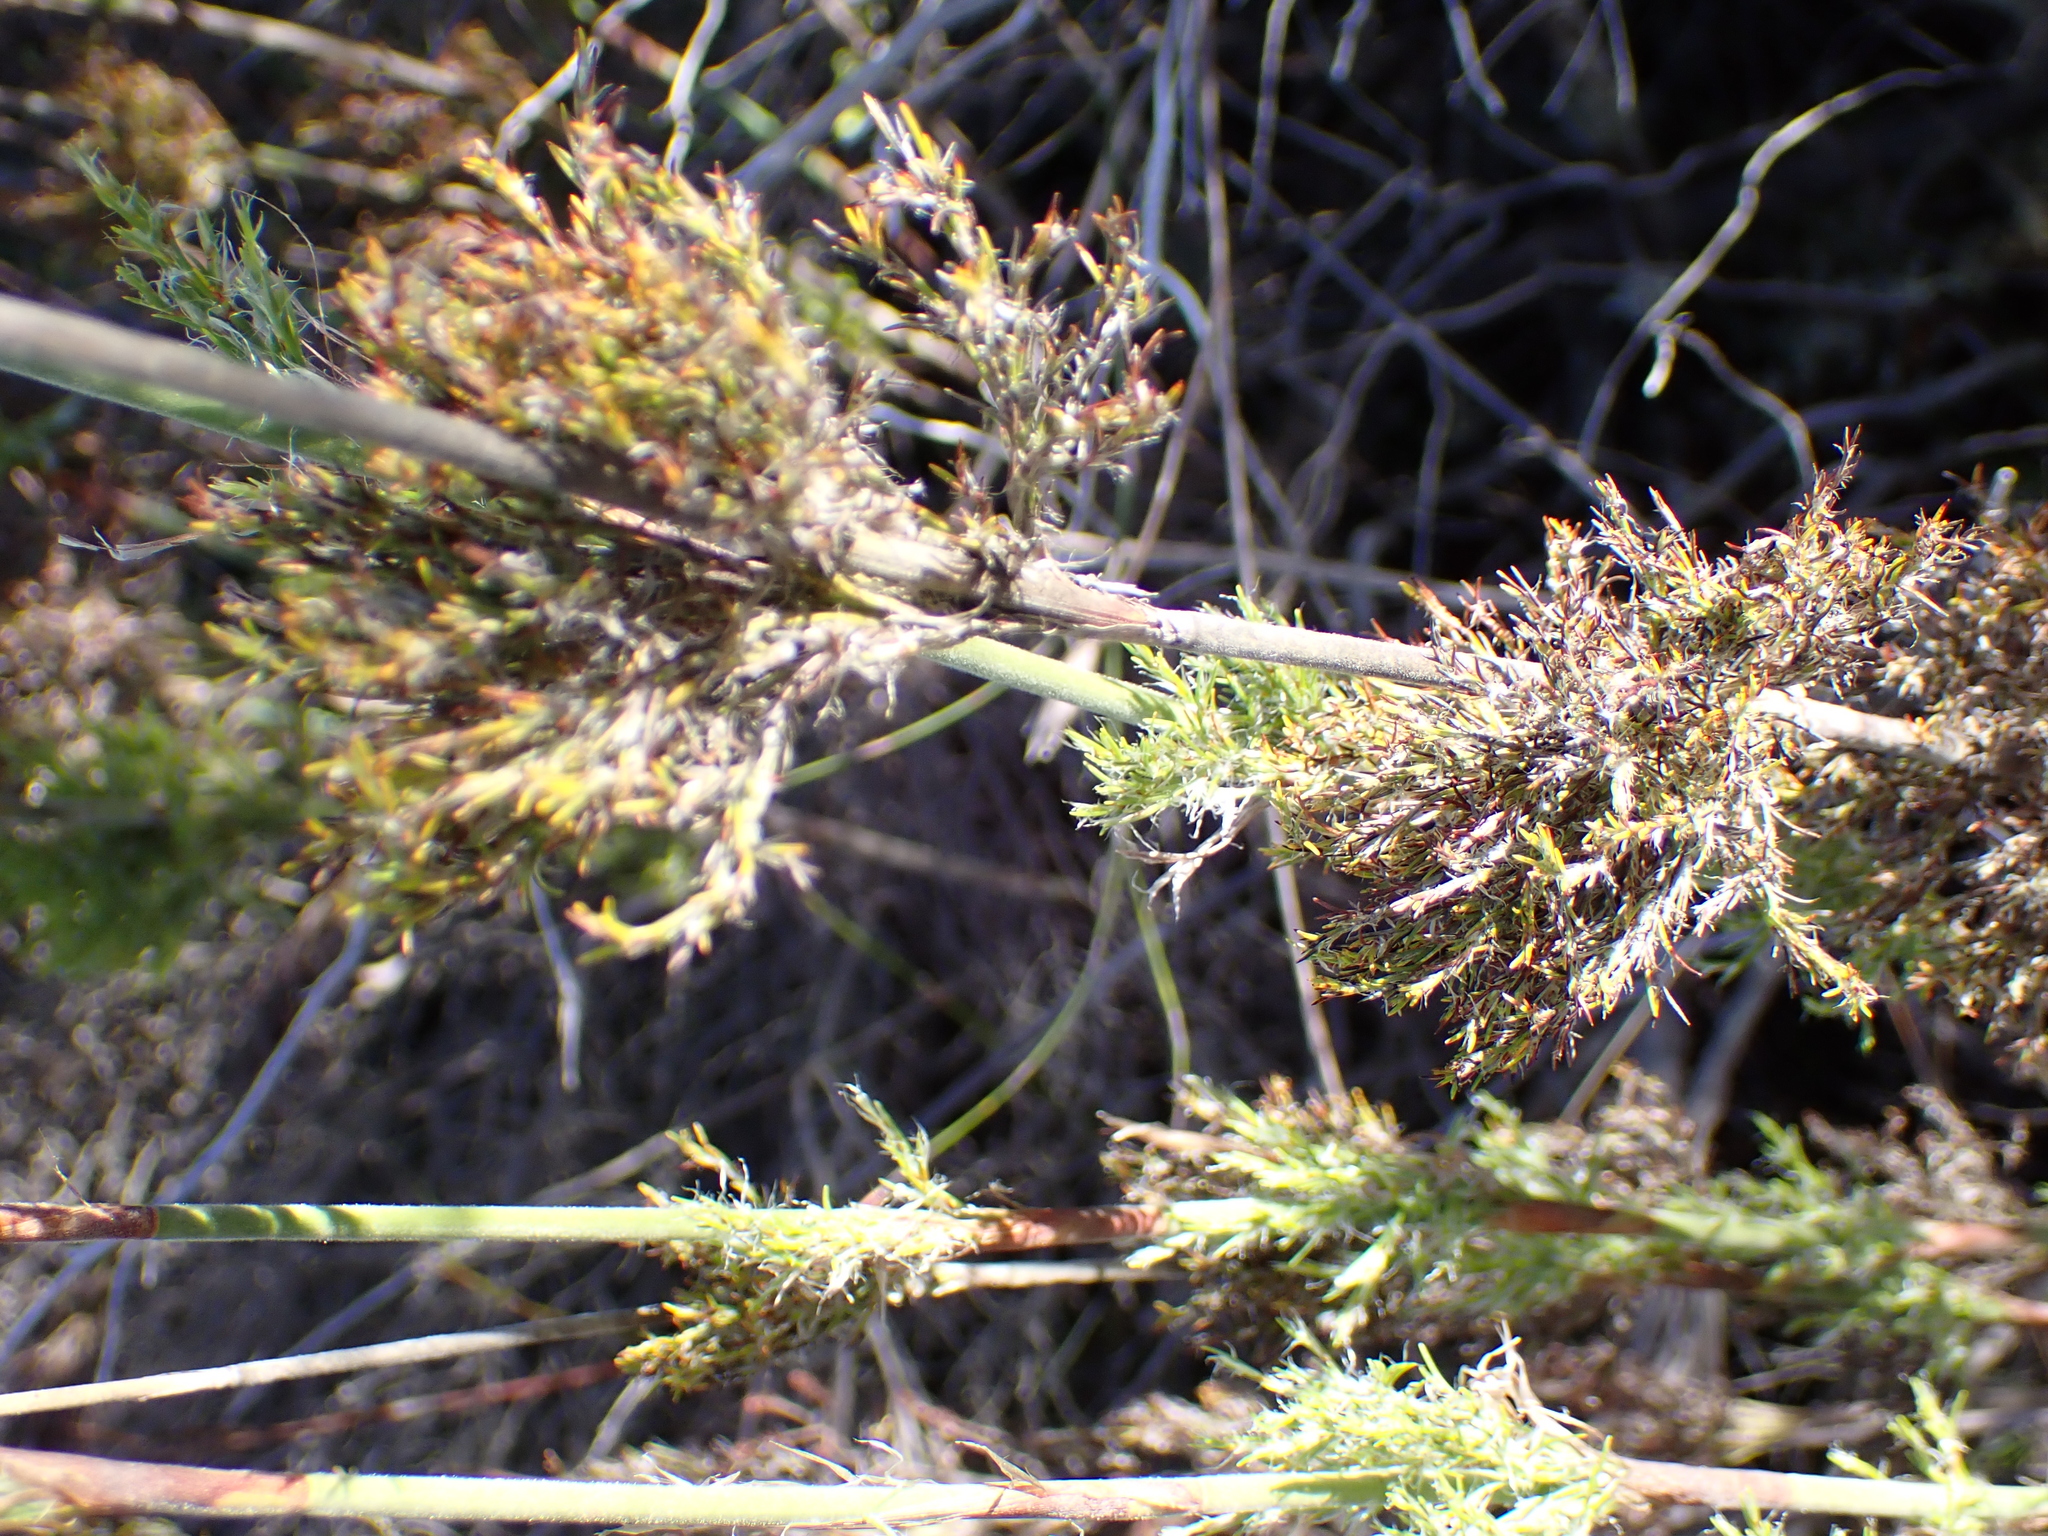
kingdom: Plantae
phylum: Tracheophyta
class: Liliopsida
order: Poales
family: Restionaceae
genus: Thamnochortus
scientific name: Thamnochortus cinereus
